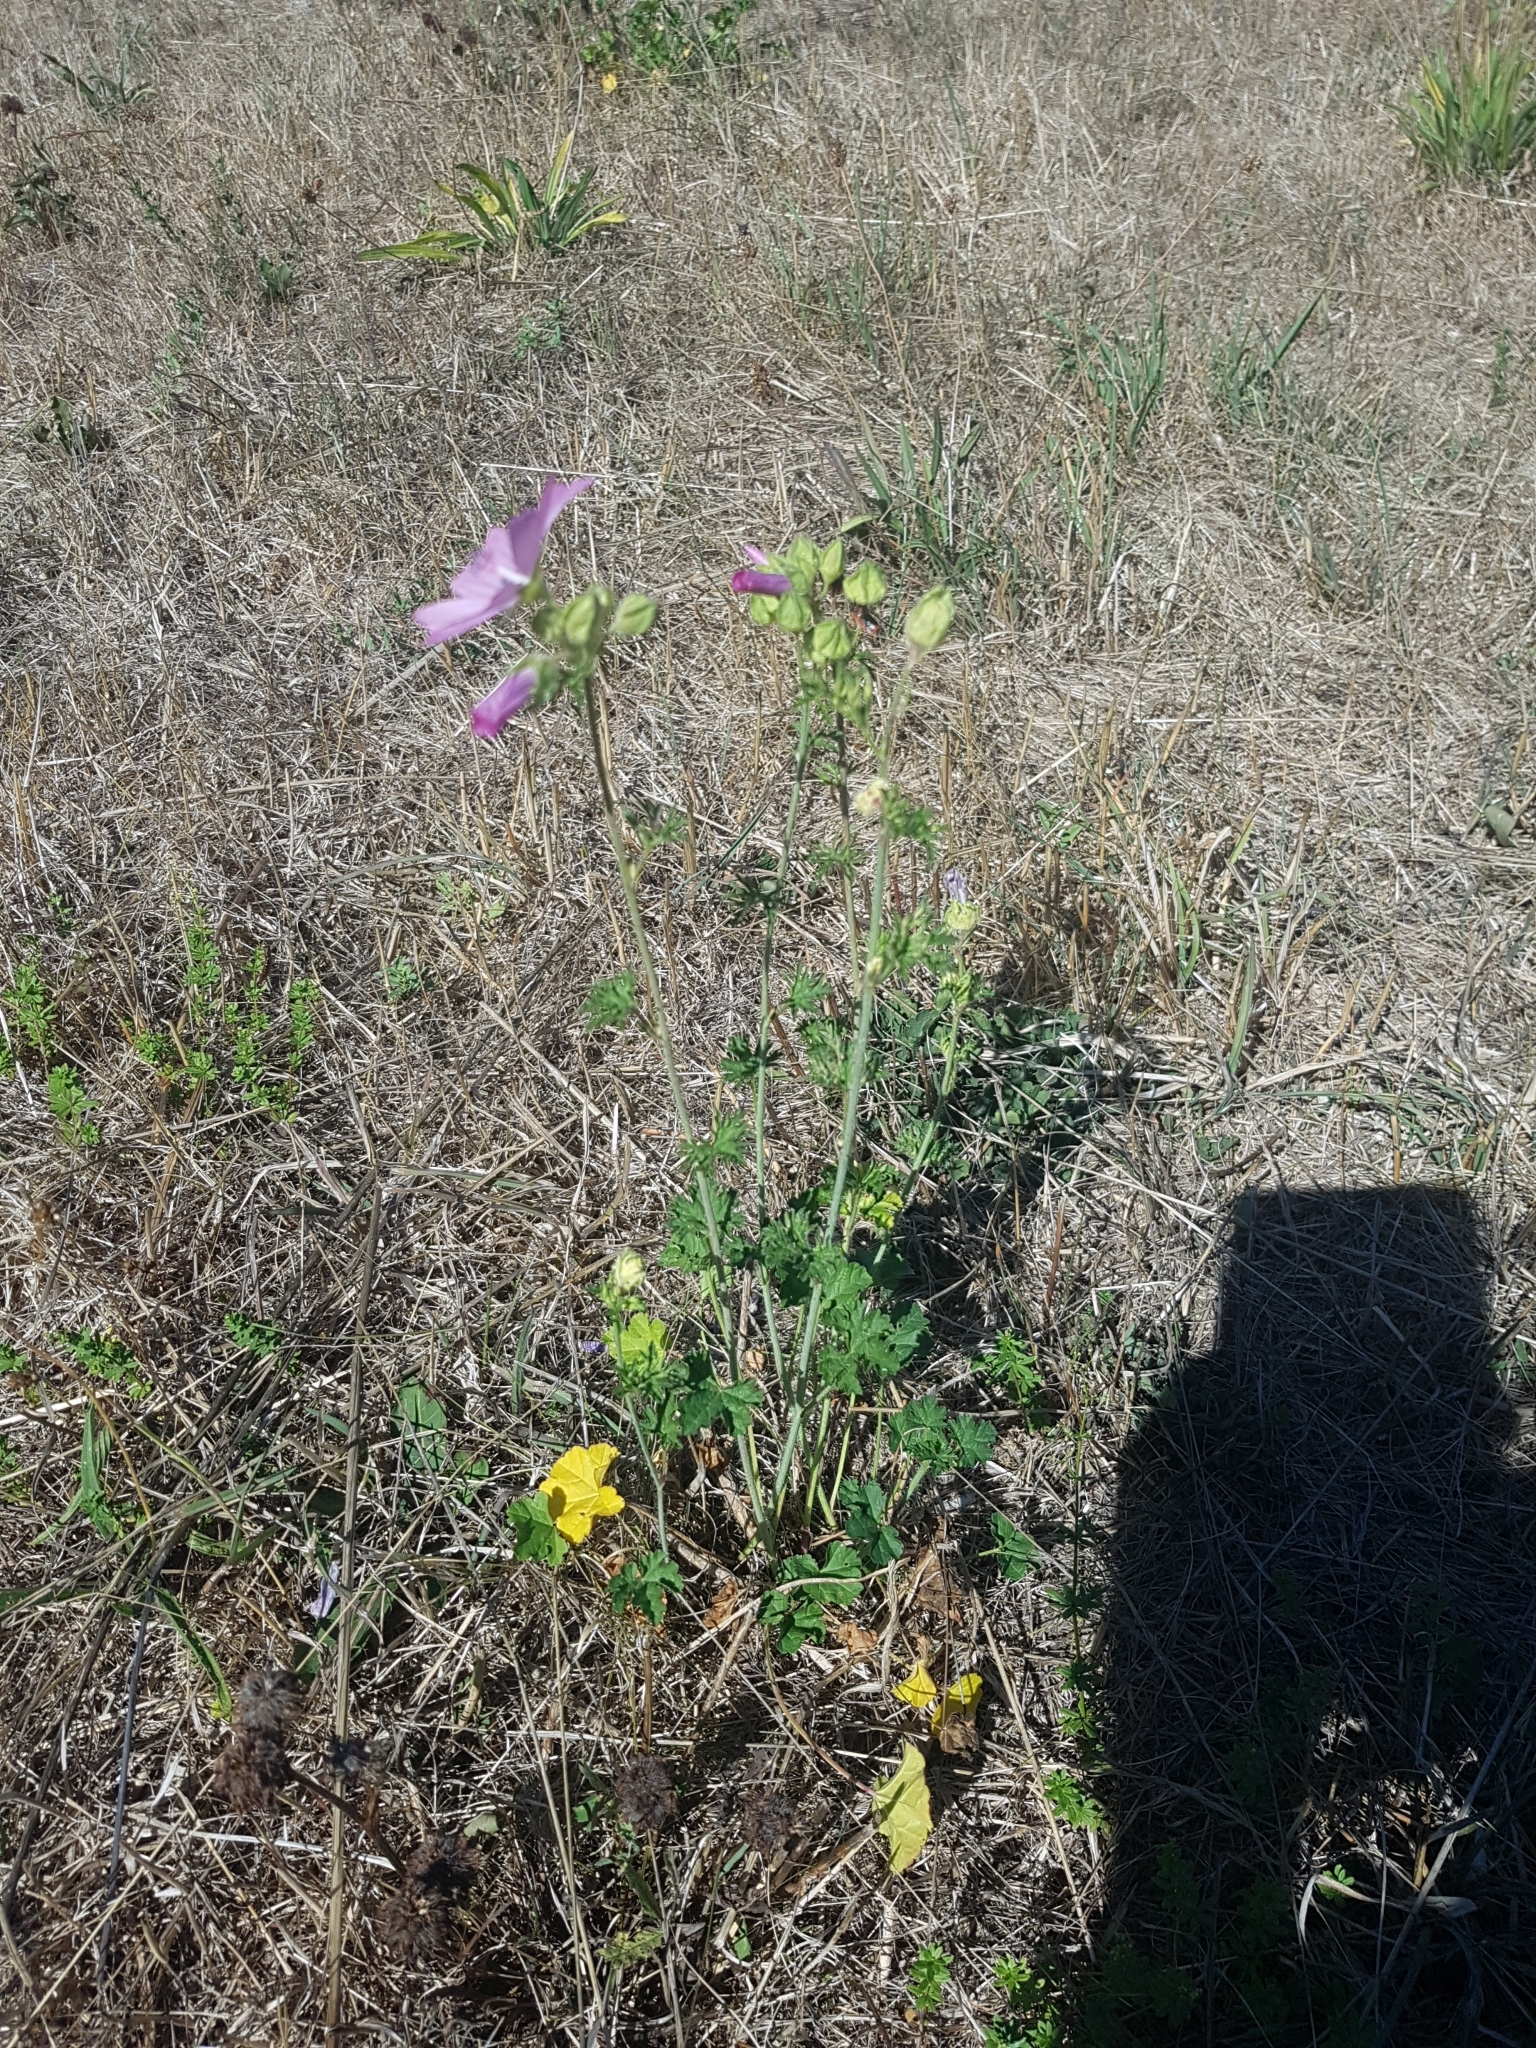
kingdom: Plantae
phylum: Tracheophyta
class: Magnoliopsida
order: Malvales
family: Malvaceae
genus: Malva
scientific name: Malva moschata
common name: Musk mallow
